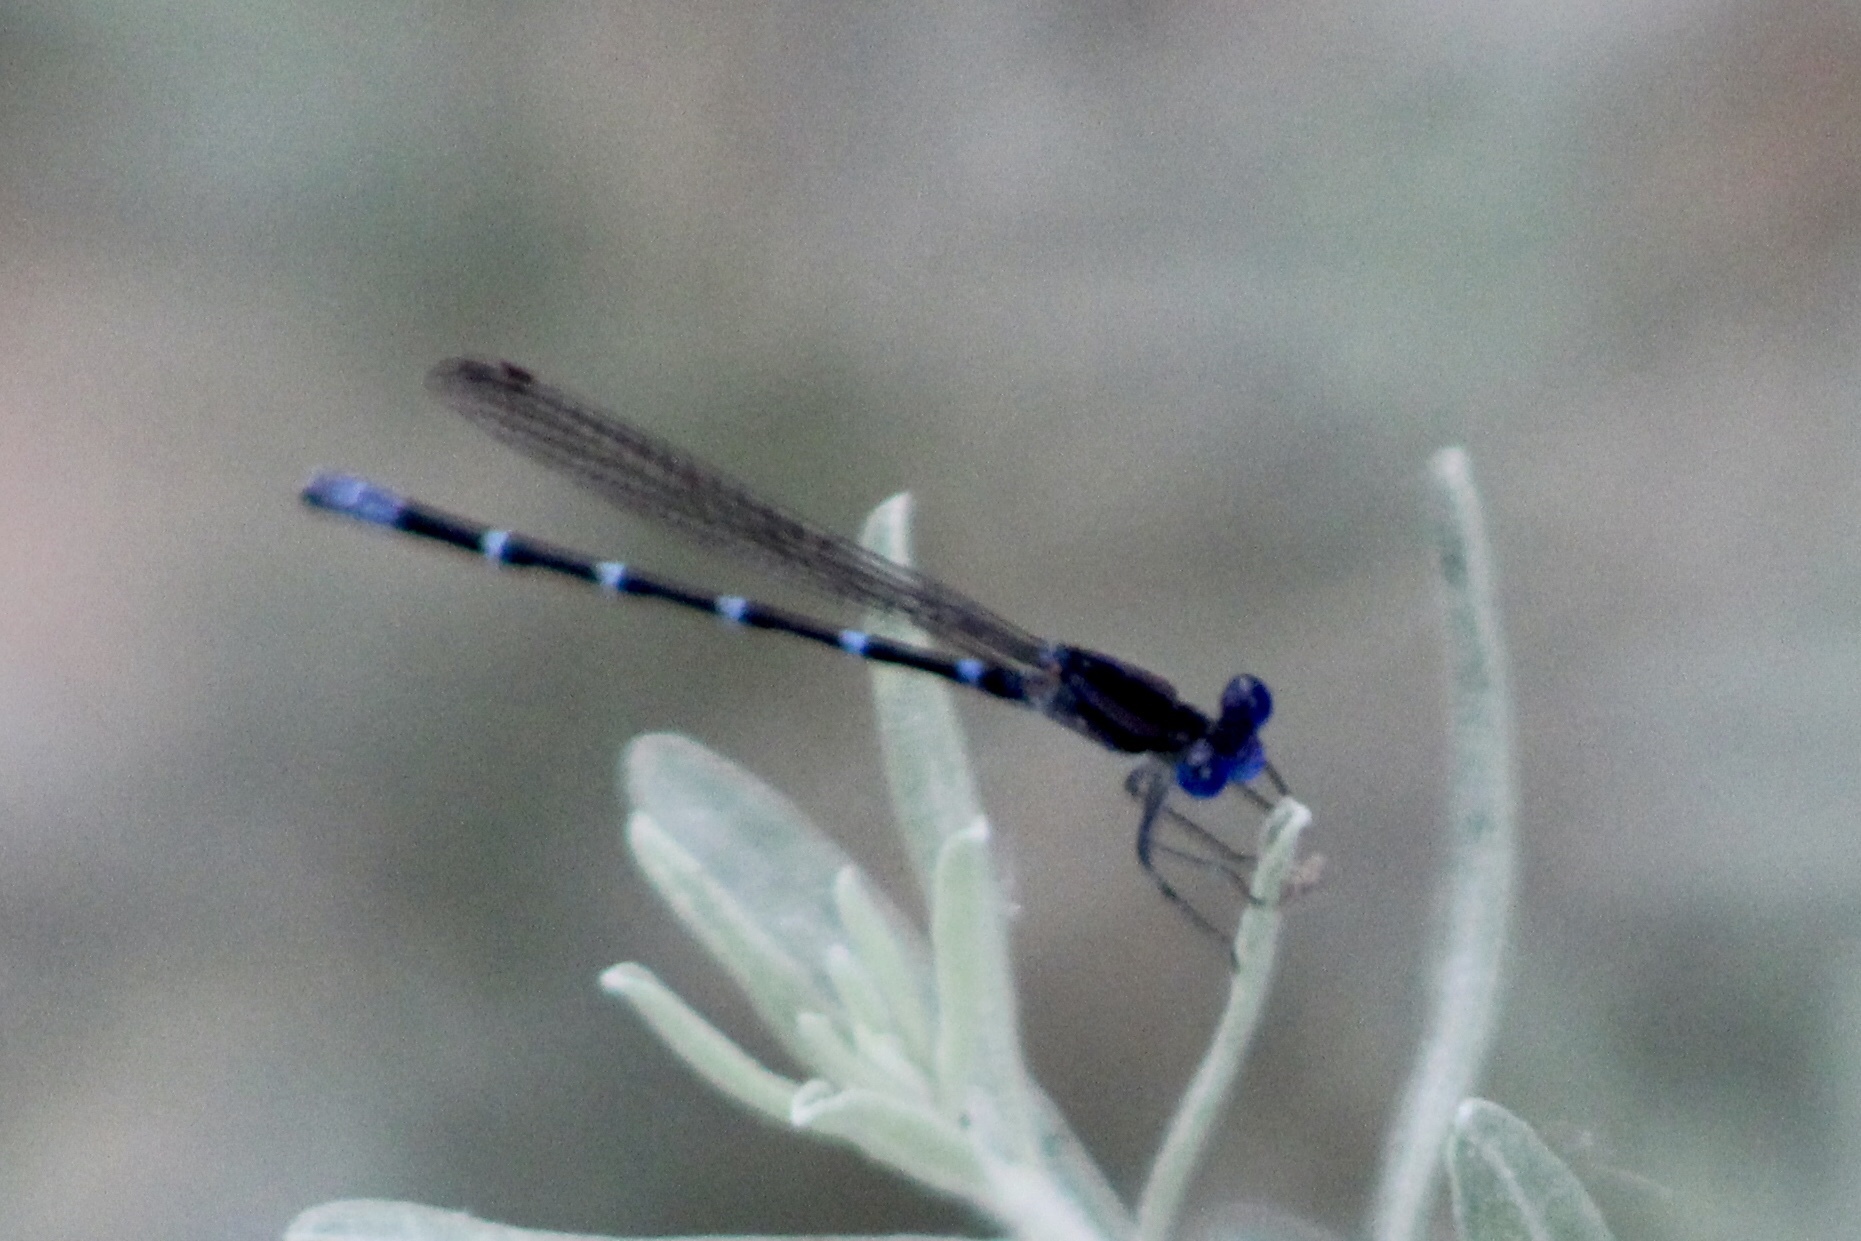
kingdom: Animalia
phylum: Arthropoda
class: Insecta
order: Odonata
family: Coenagrionidae
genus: Argia
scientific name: Argia sedula
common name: Blue-ringed dancer
